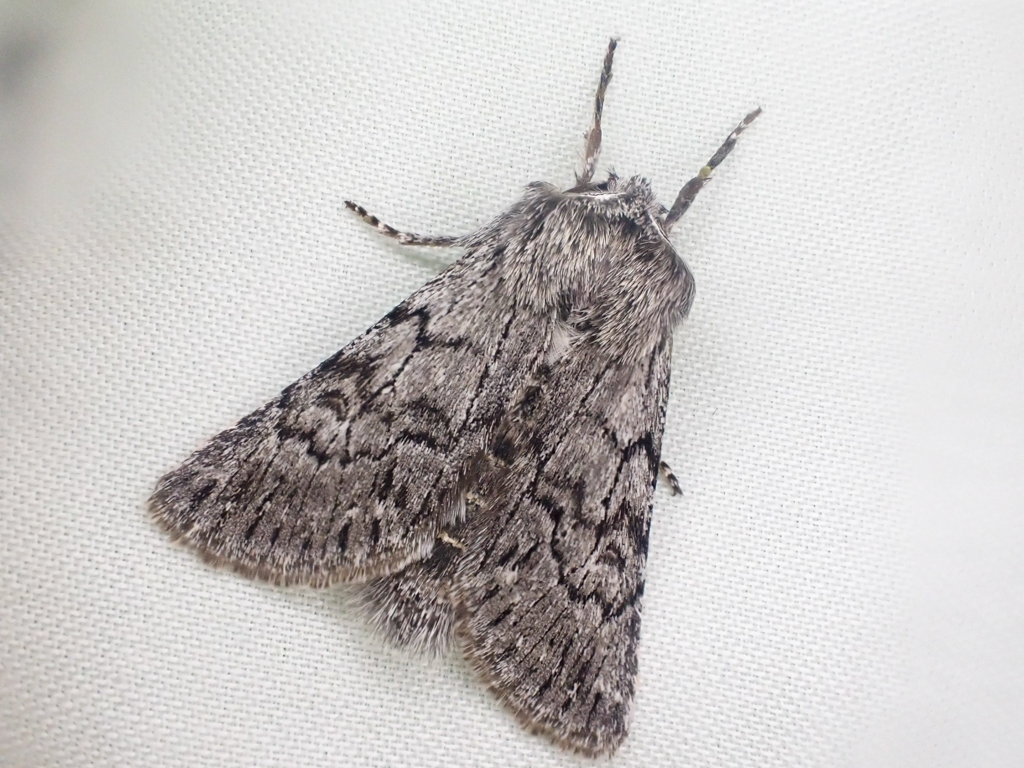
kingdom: Animalia
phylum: Arthropoda
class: Insecta
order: Lepidoptera
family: Noctuidae
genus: Pleromelloida
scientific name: Pleromelloida conserta
